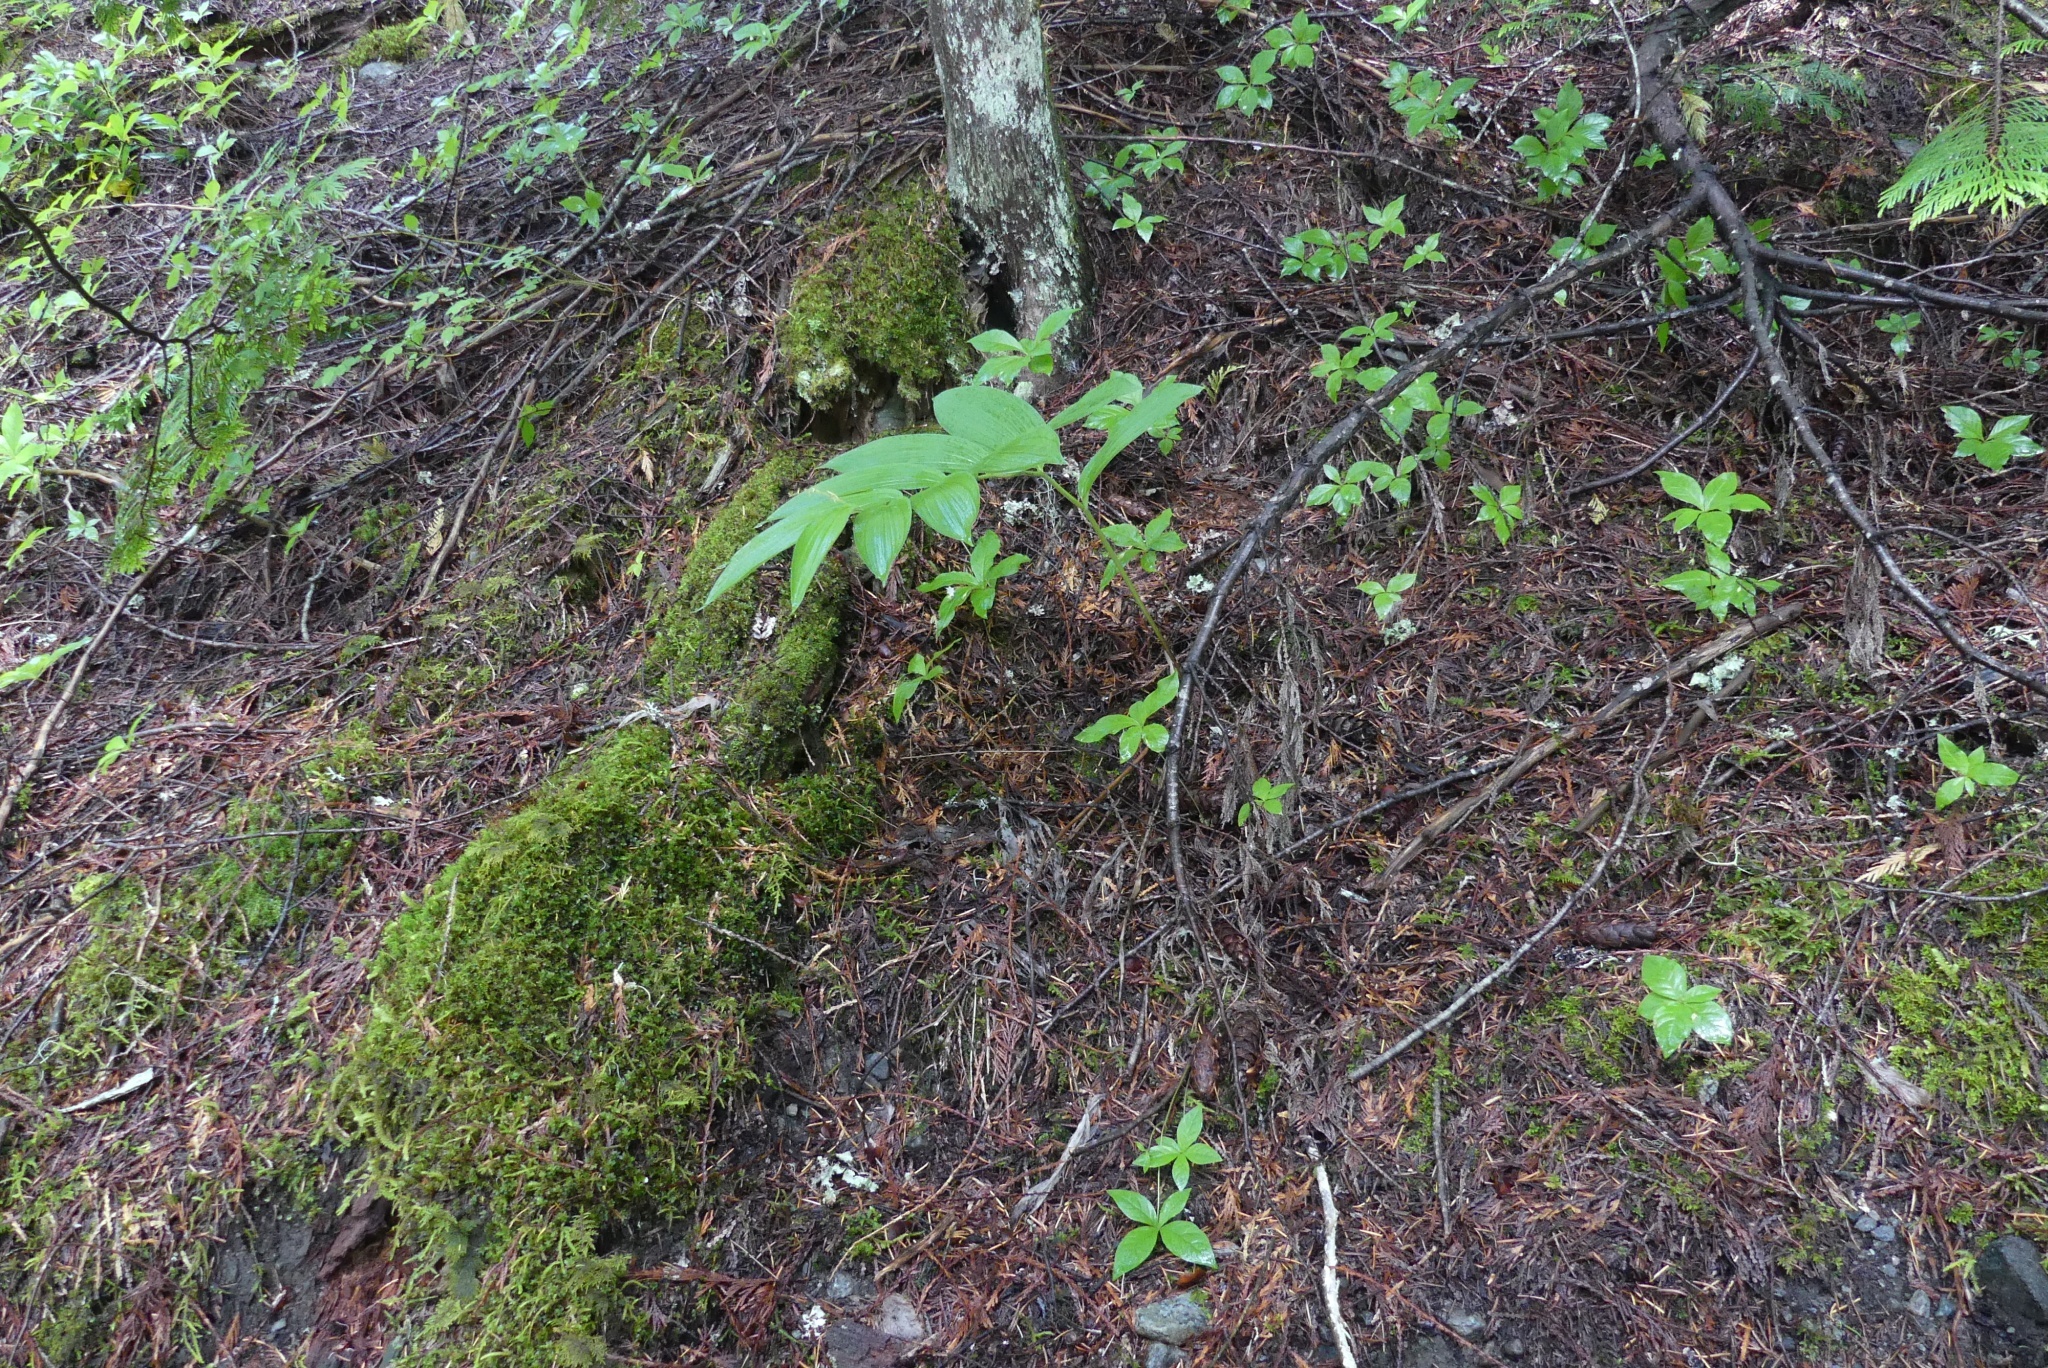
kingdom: Plantae
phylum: Tracheophyta
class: Liliopsida
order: Asparagales
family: Asparagaceae
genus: Maianthemum
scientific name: Maianthemum racemosum
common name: False spikenard
